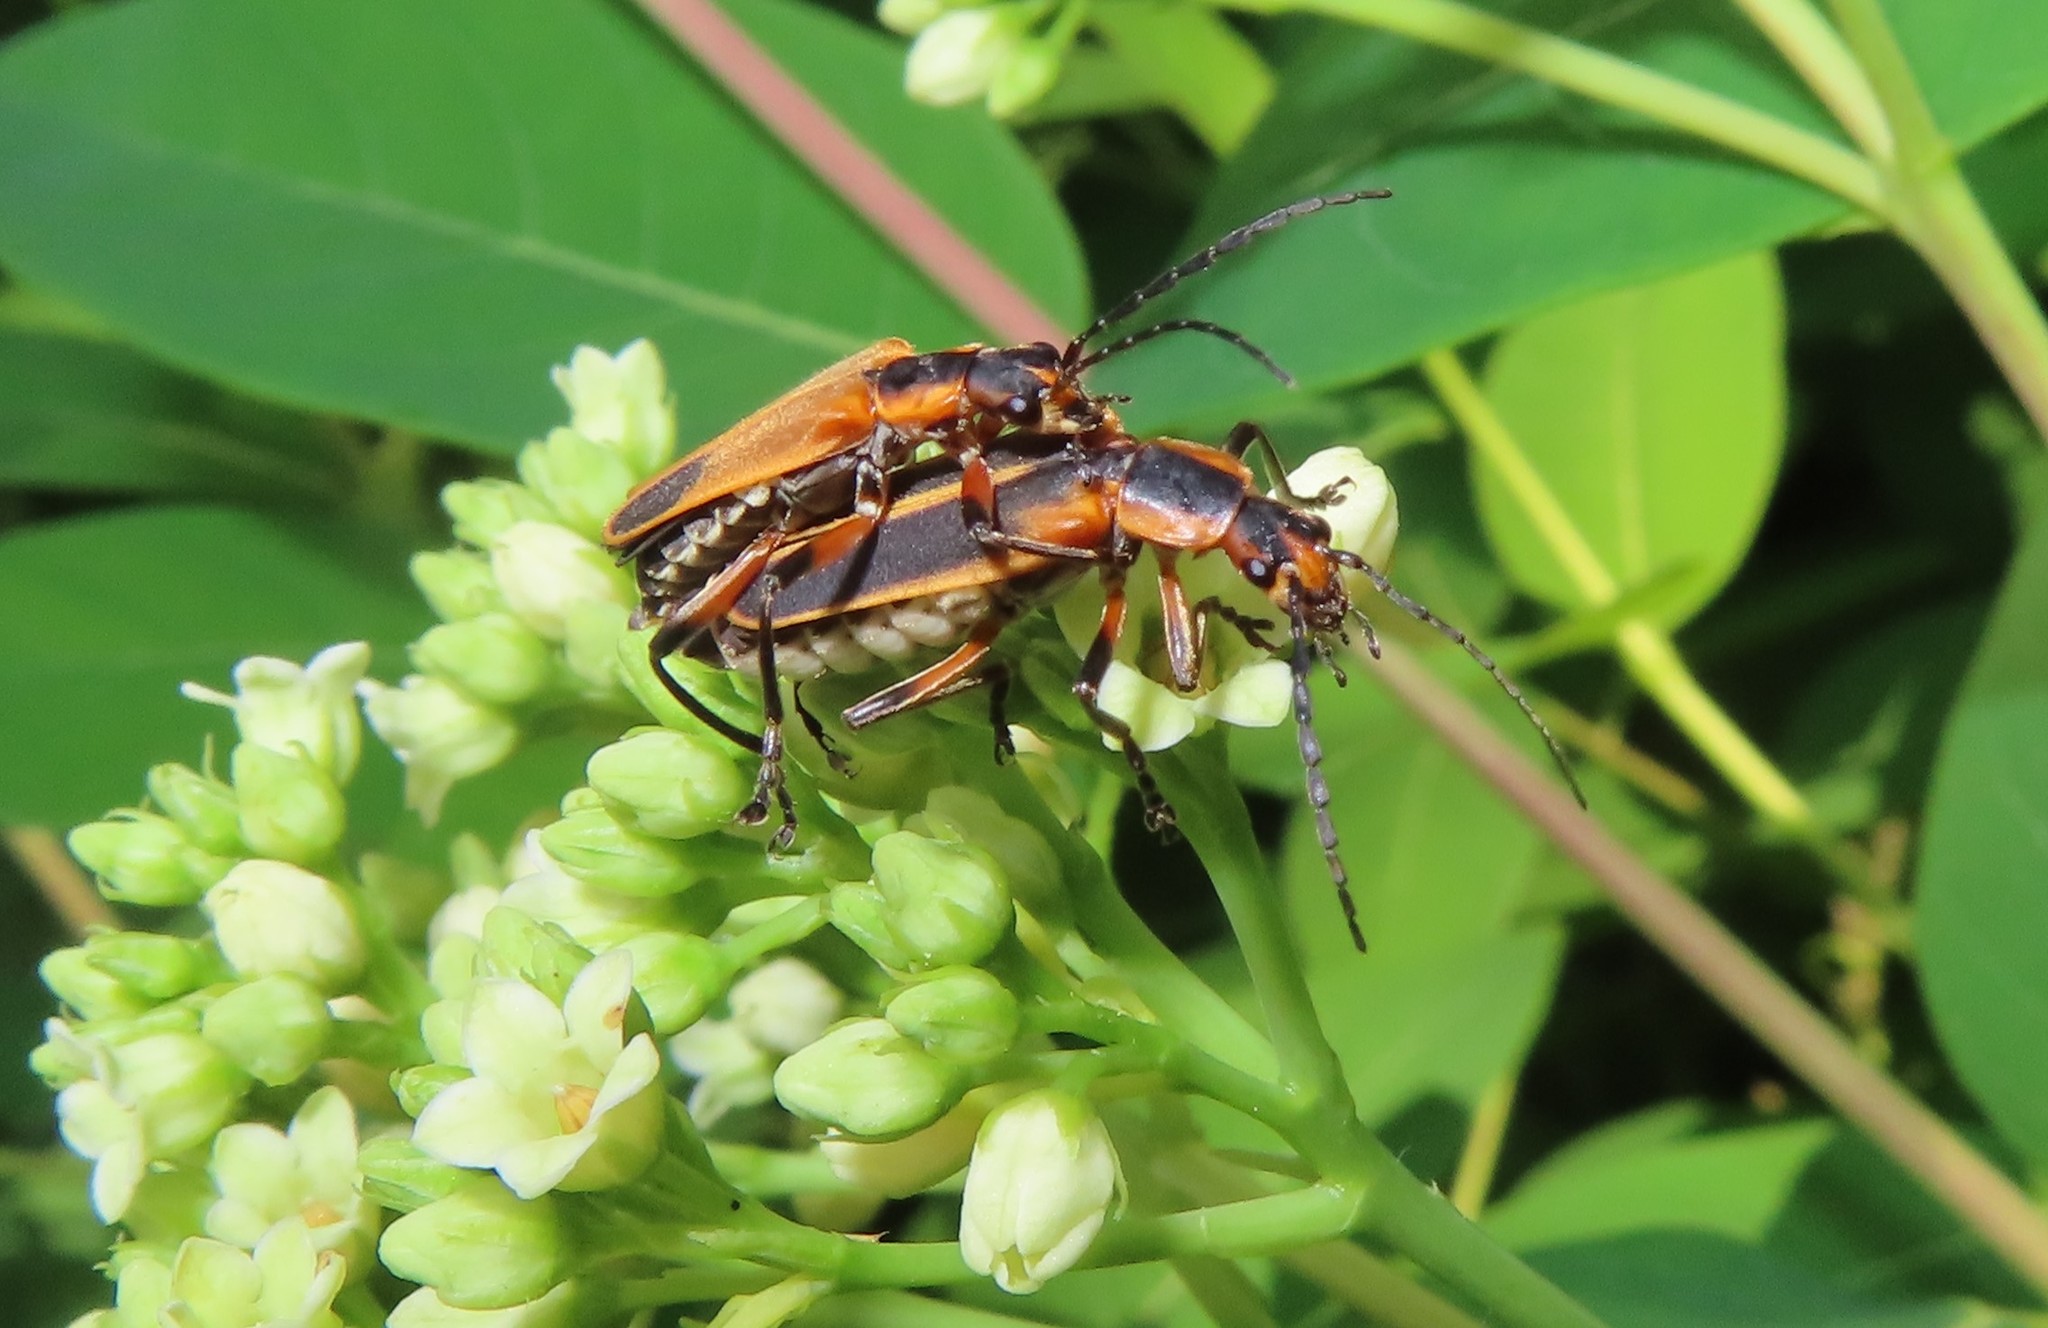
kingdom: Animalia
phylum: Arthropoda
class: Insecta
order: Coleoptera
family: Cantharidae
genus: Chauliognathus
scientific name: Chauliognathus marginatus
